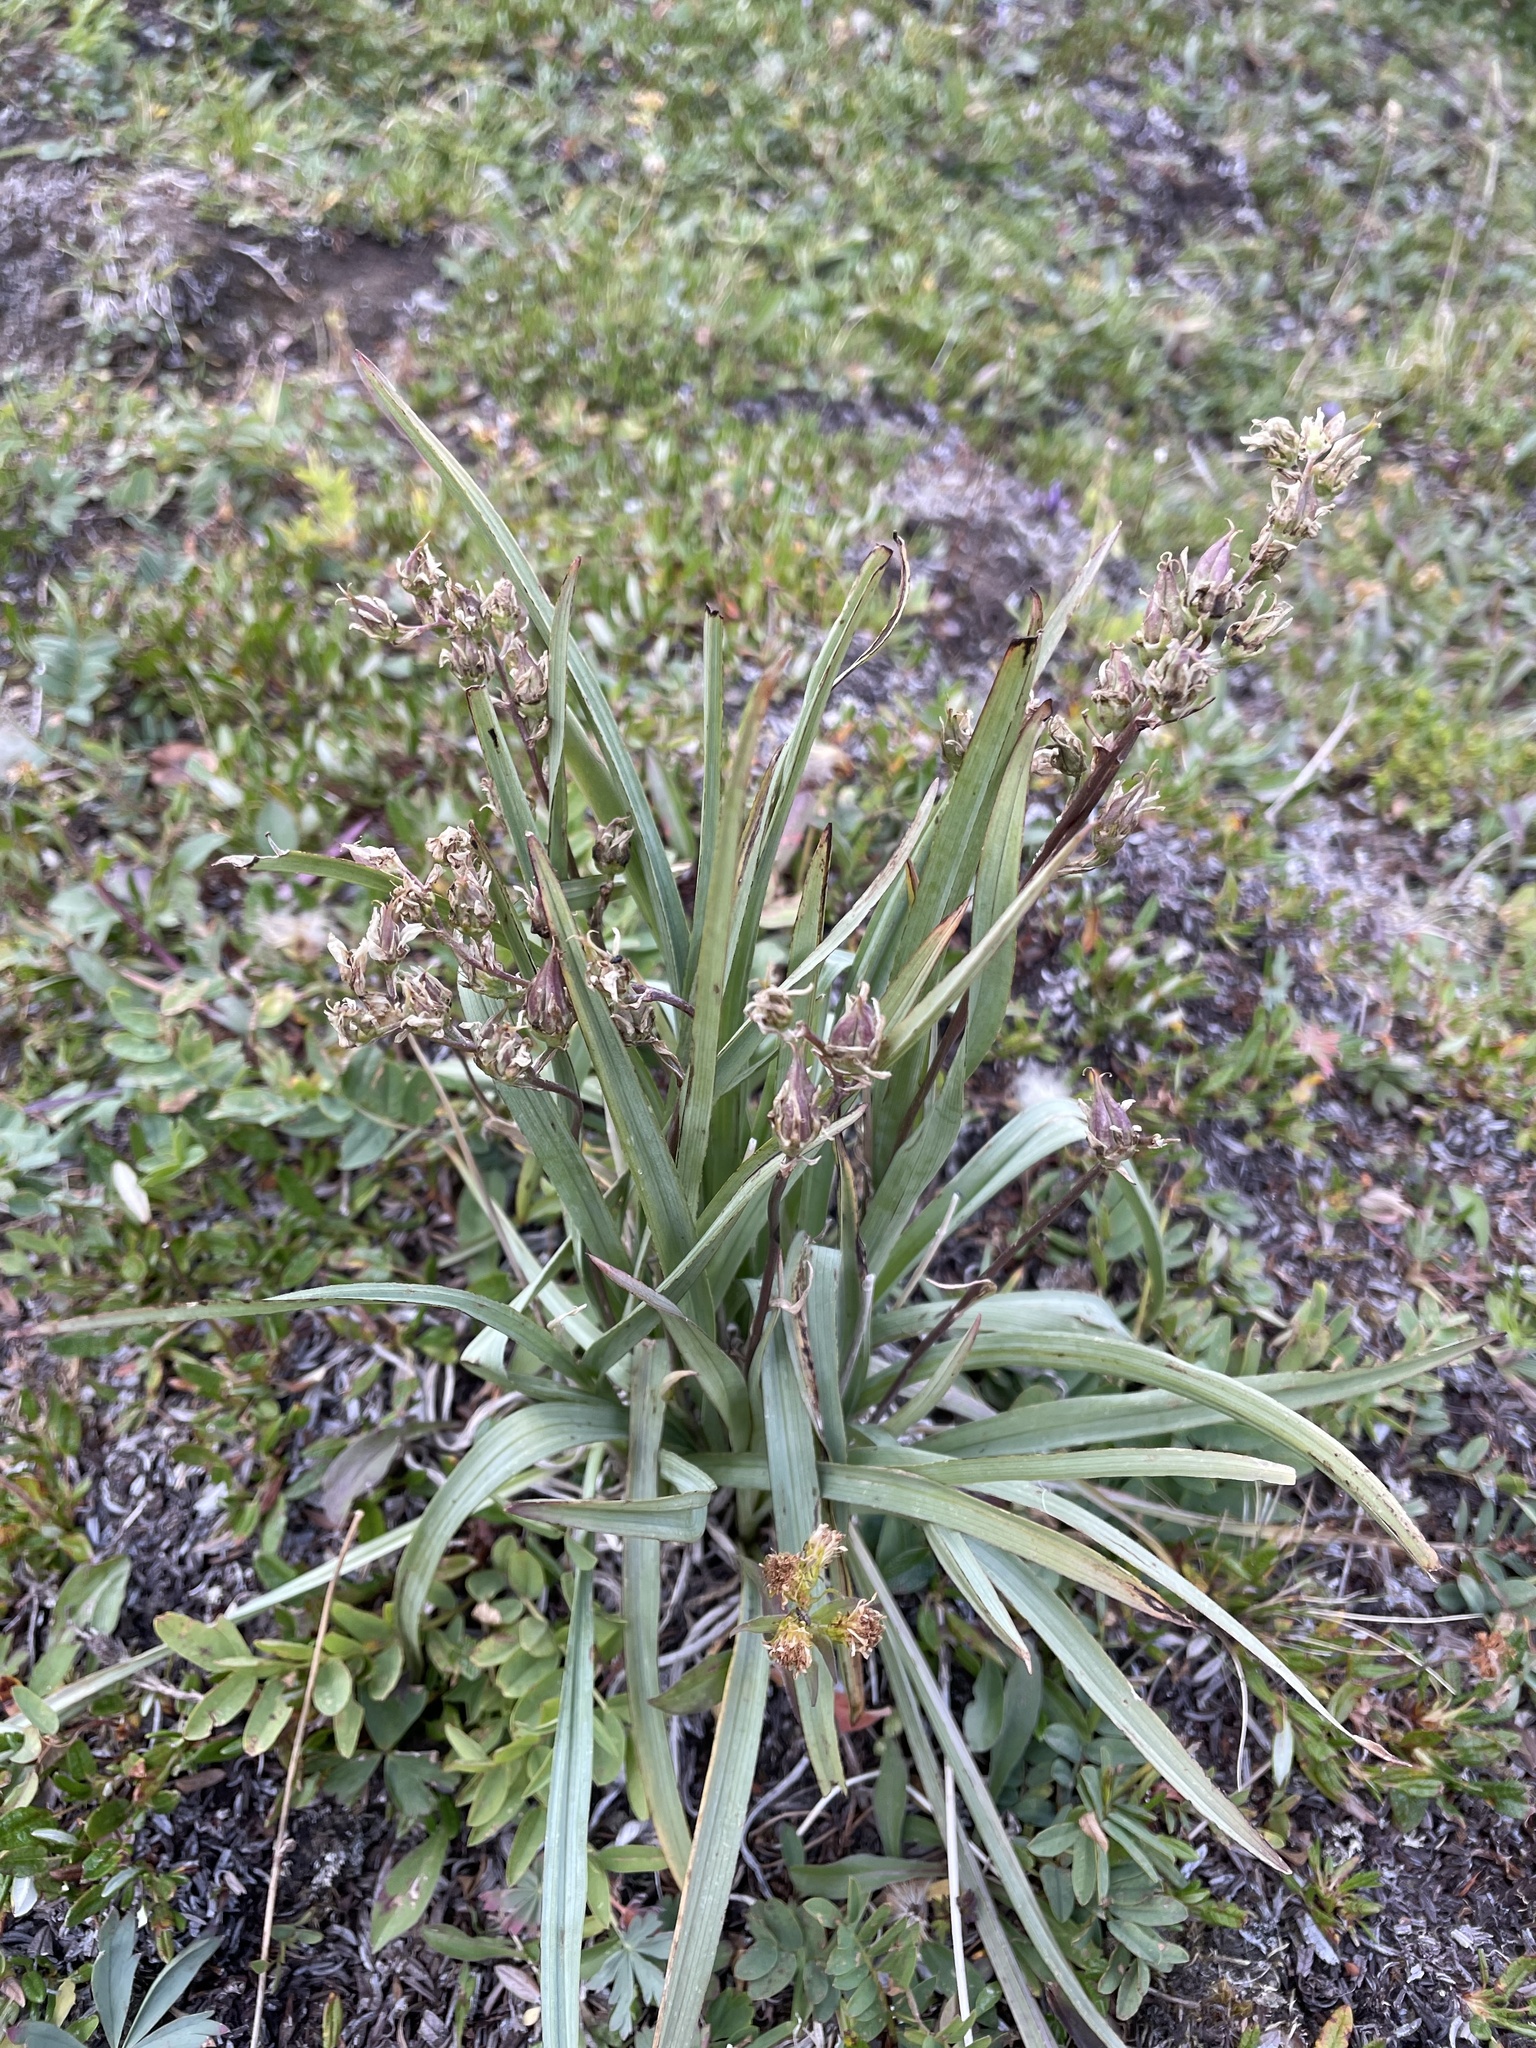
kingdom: Plantae
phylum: Tracheophyta
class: Liliopsida
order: Liliales
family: Melanthiaceae
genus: Anticlea
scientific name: Anticlea elegans
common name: Mountain death camas
